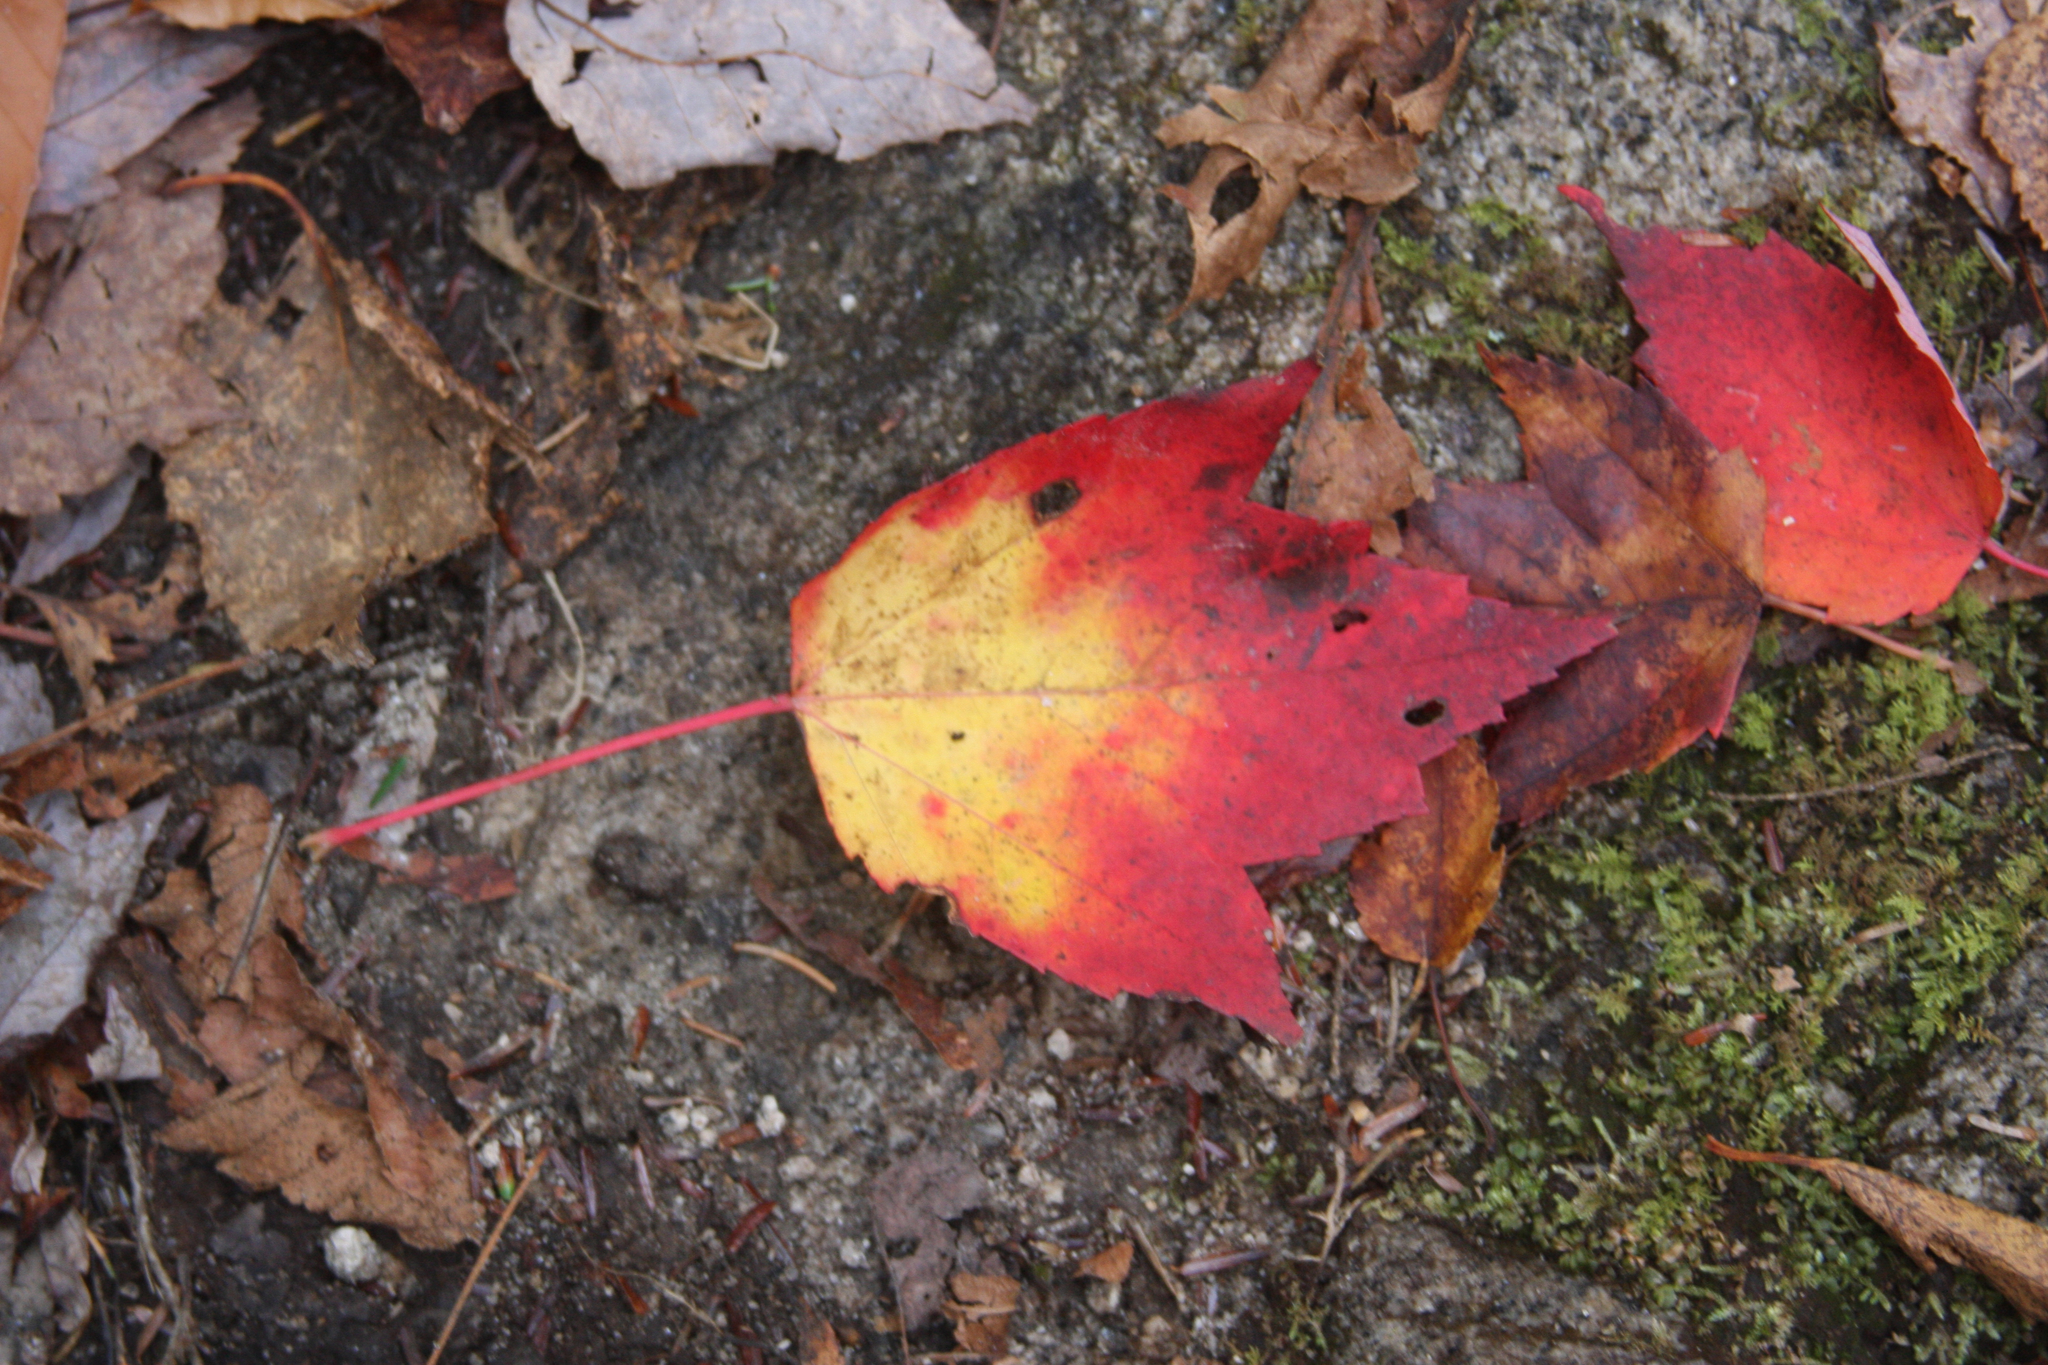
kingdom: Plantae
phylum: Tracheophyta
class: Magnoliopsida
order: Sapindales
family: Sapindaceae
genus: Acer
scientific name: Acer rubrum
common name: Red maple
